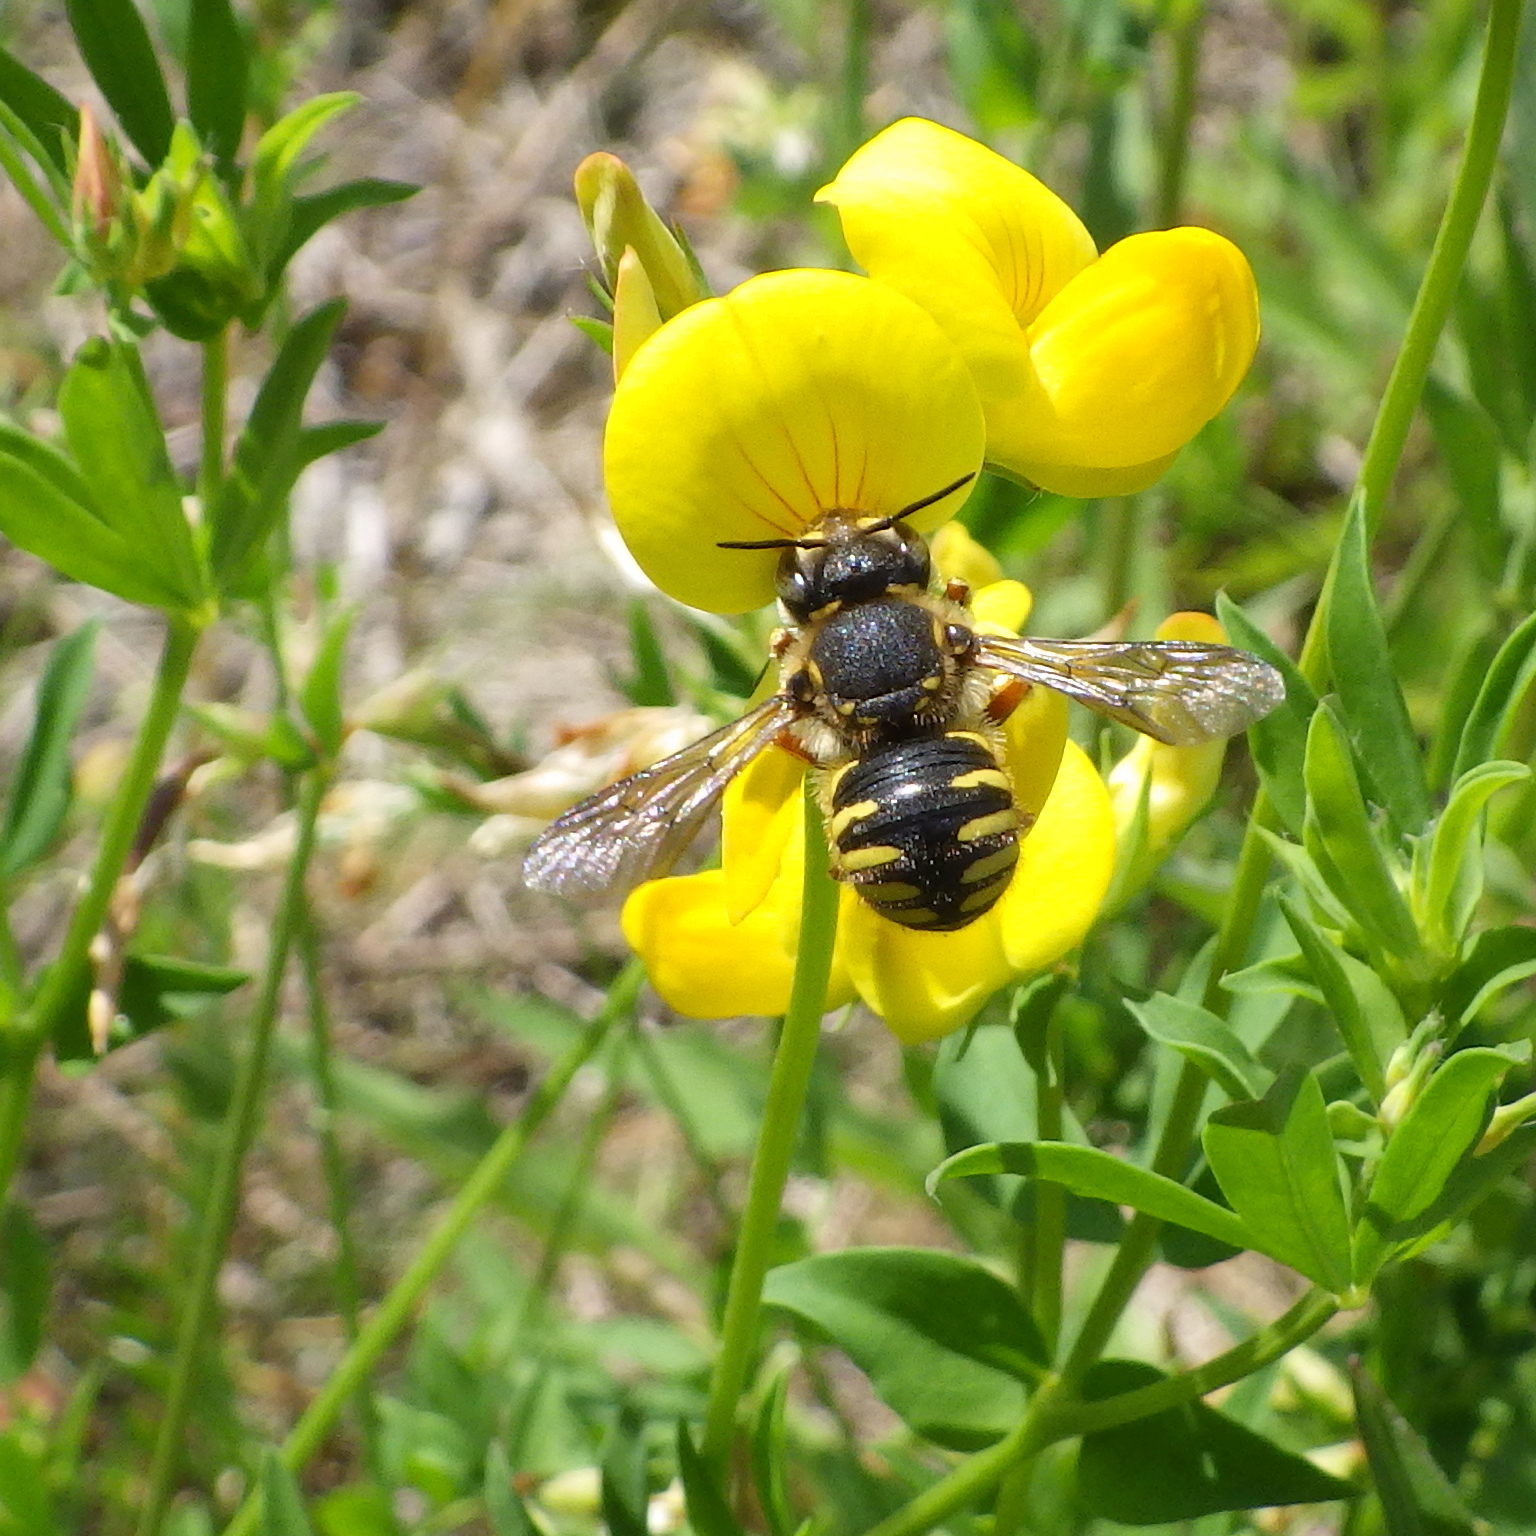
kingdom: Animalia
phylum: Arthropoda
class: Insecta
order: Hymenoptera
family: Megachilidae
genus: Anthidium
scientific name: Anthidium manicatum
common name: Wool carder bee
